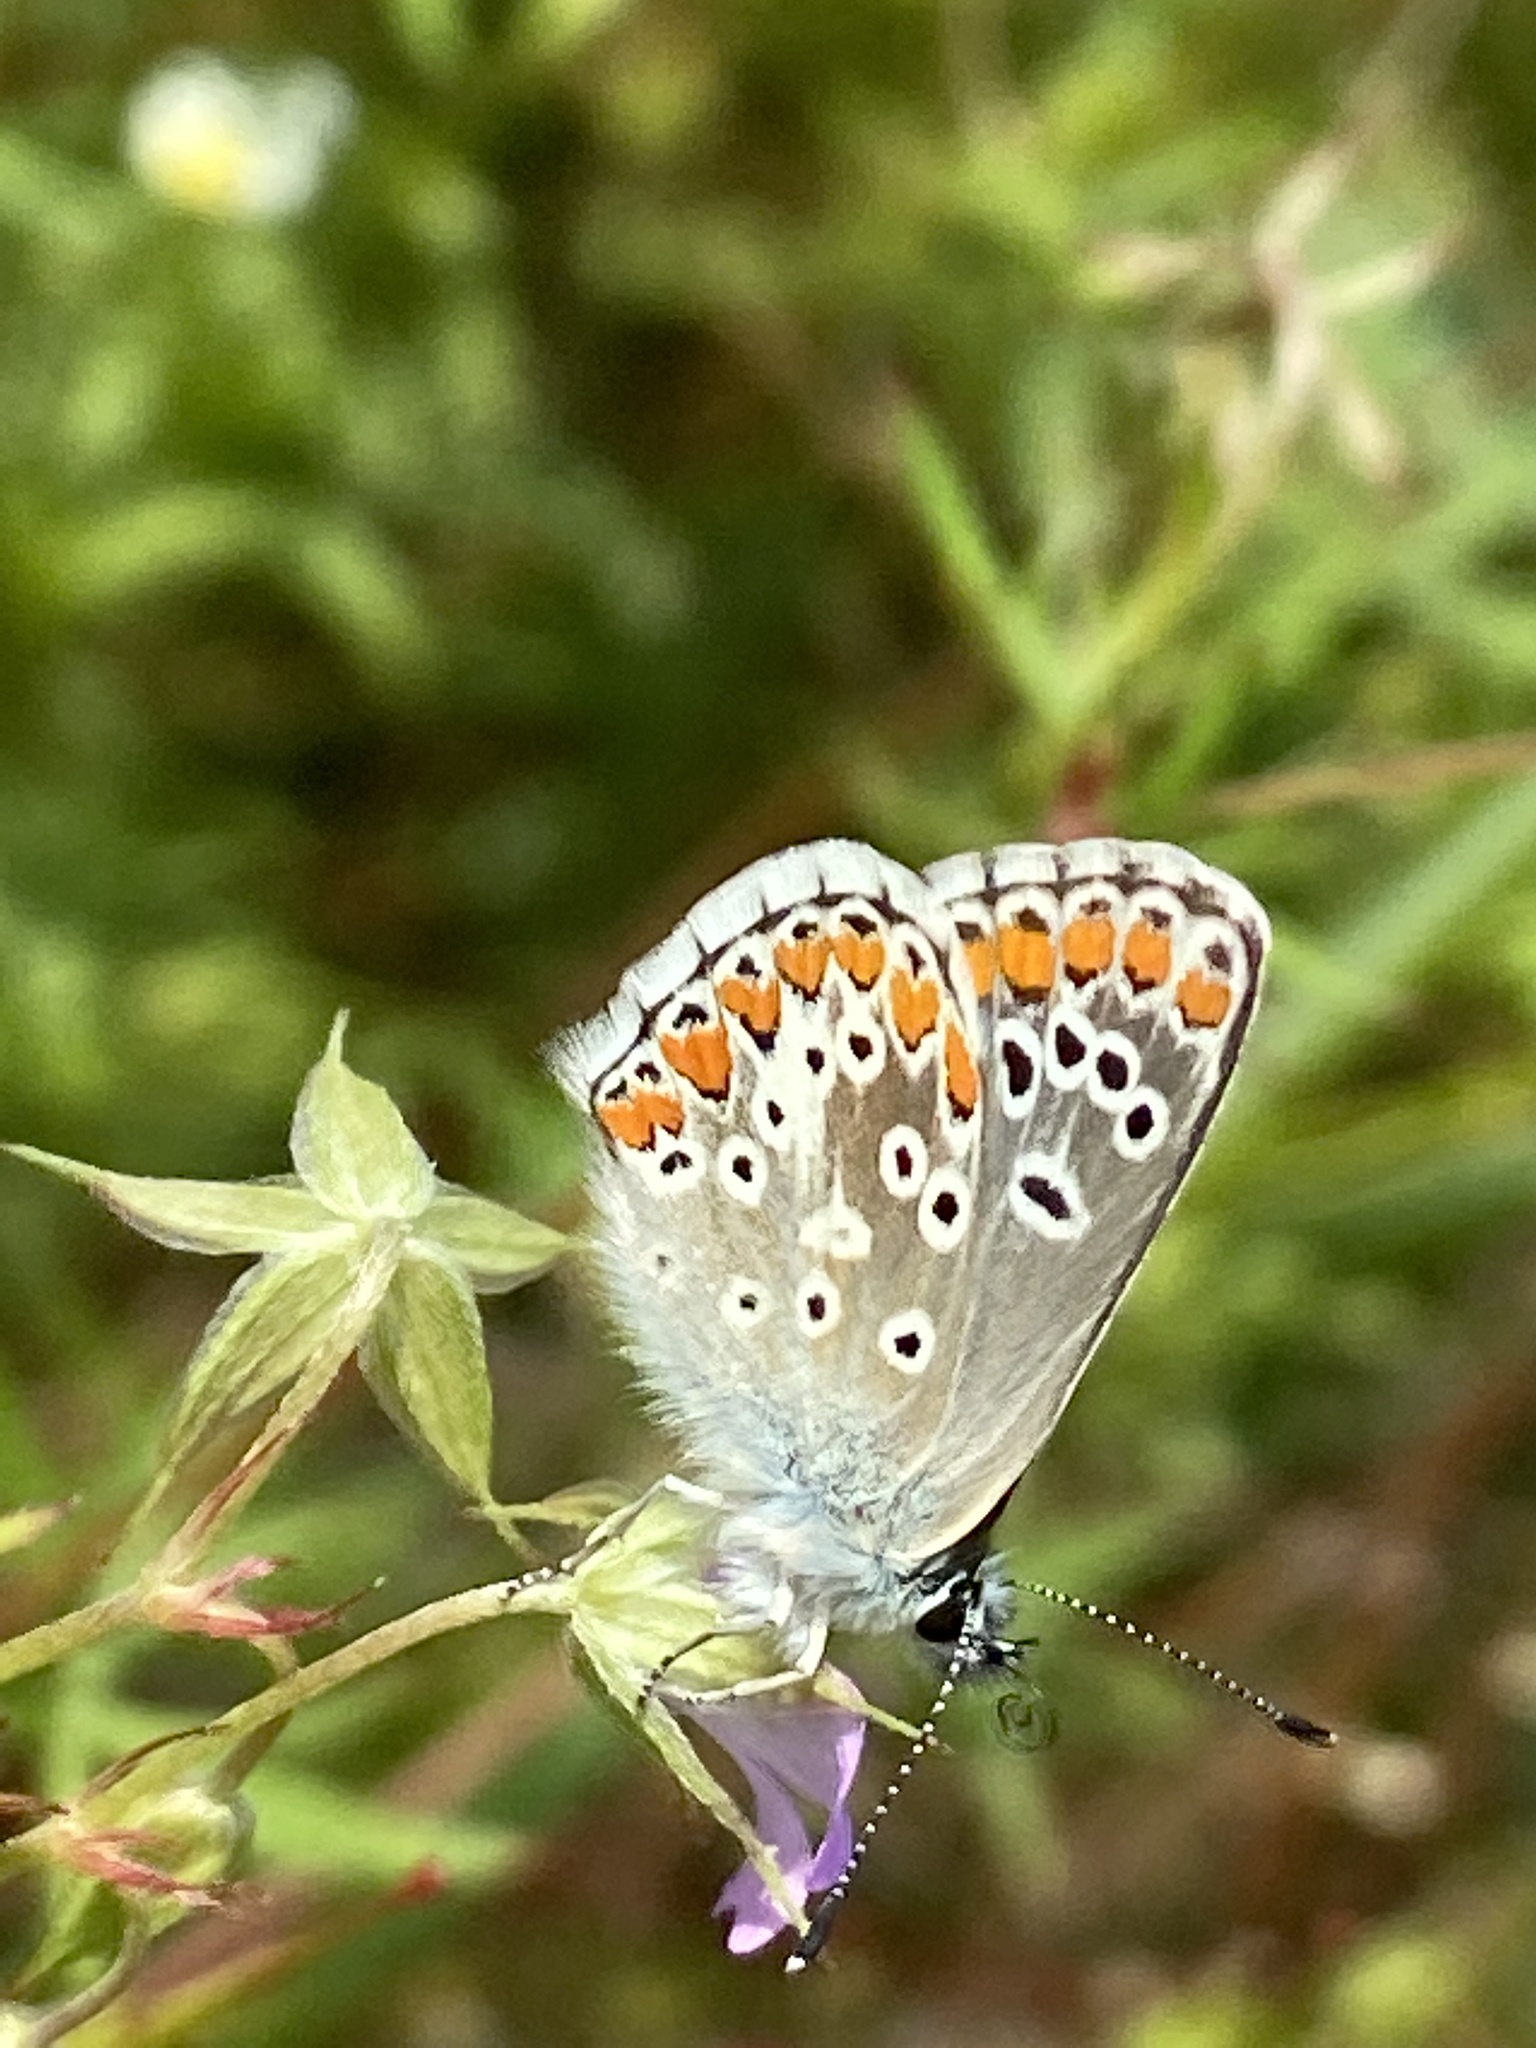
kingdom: Animalia
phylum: Arthropoda
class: Insecta
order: Lepidoptera
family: Lycaenidae
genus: Aricia
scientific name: Aricia agestis
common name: Brown argus
